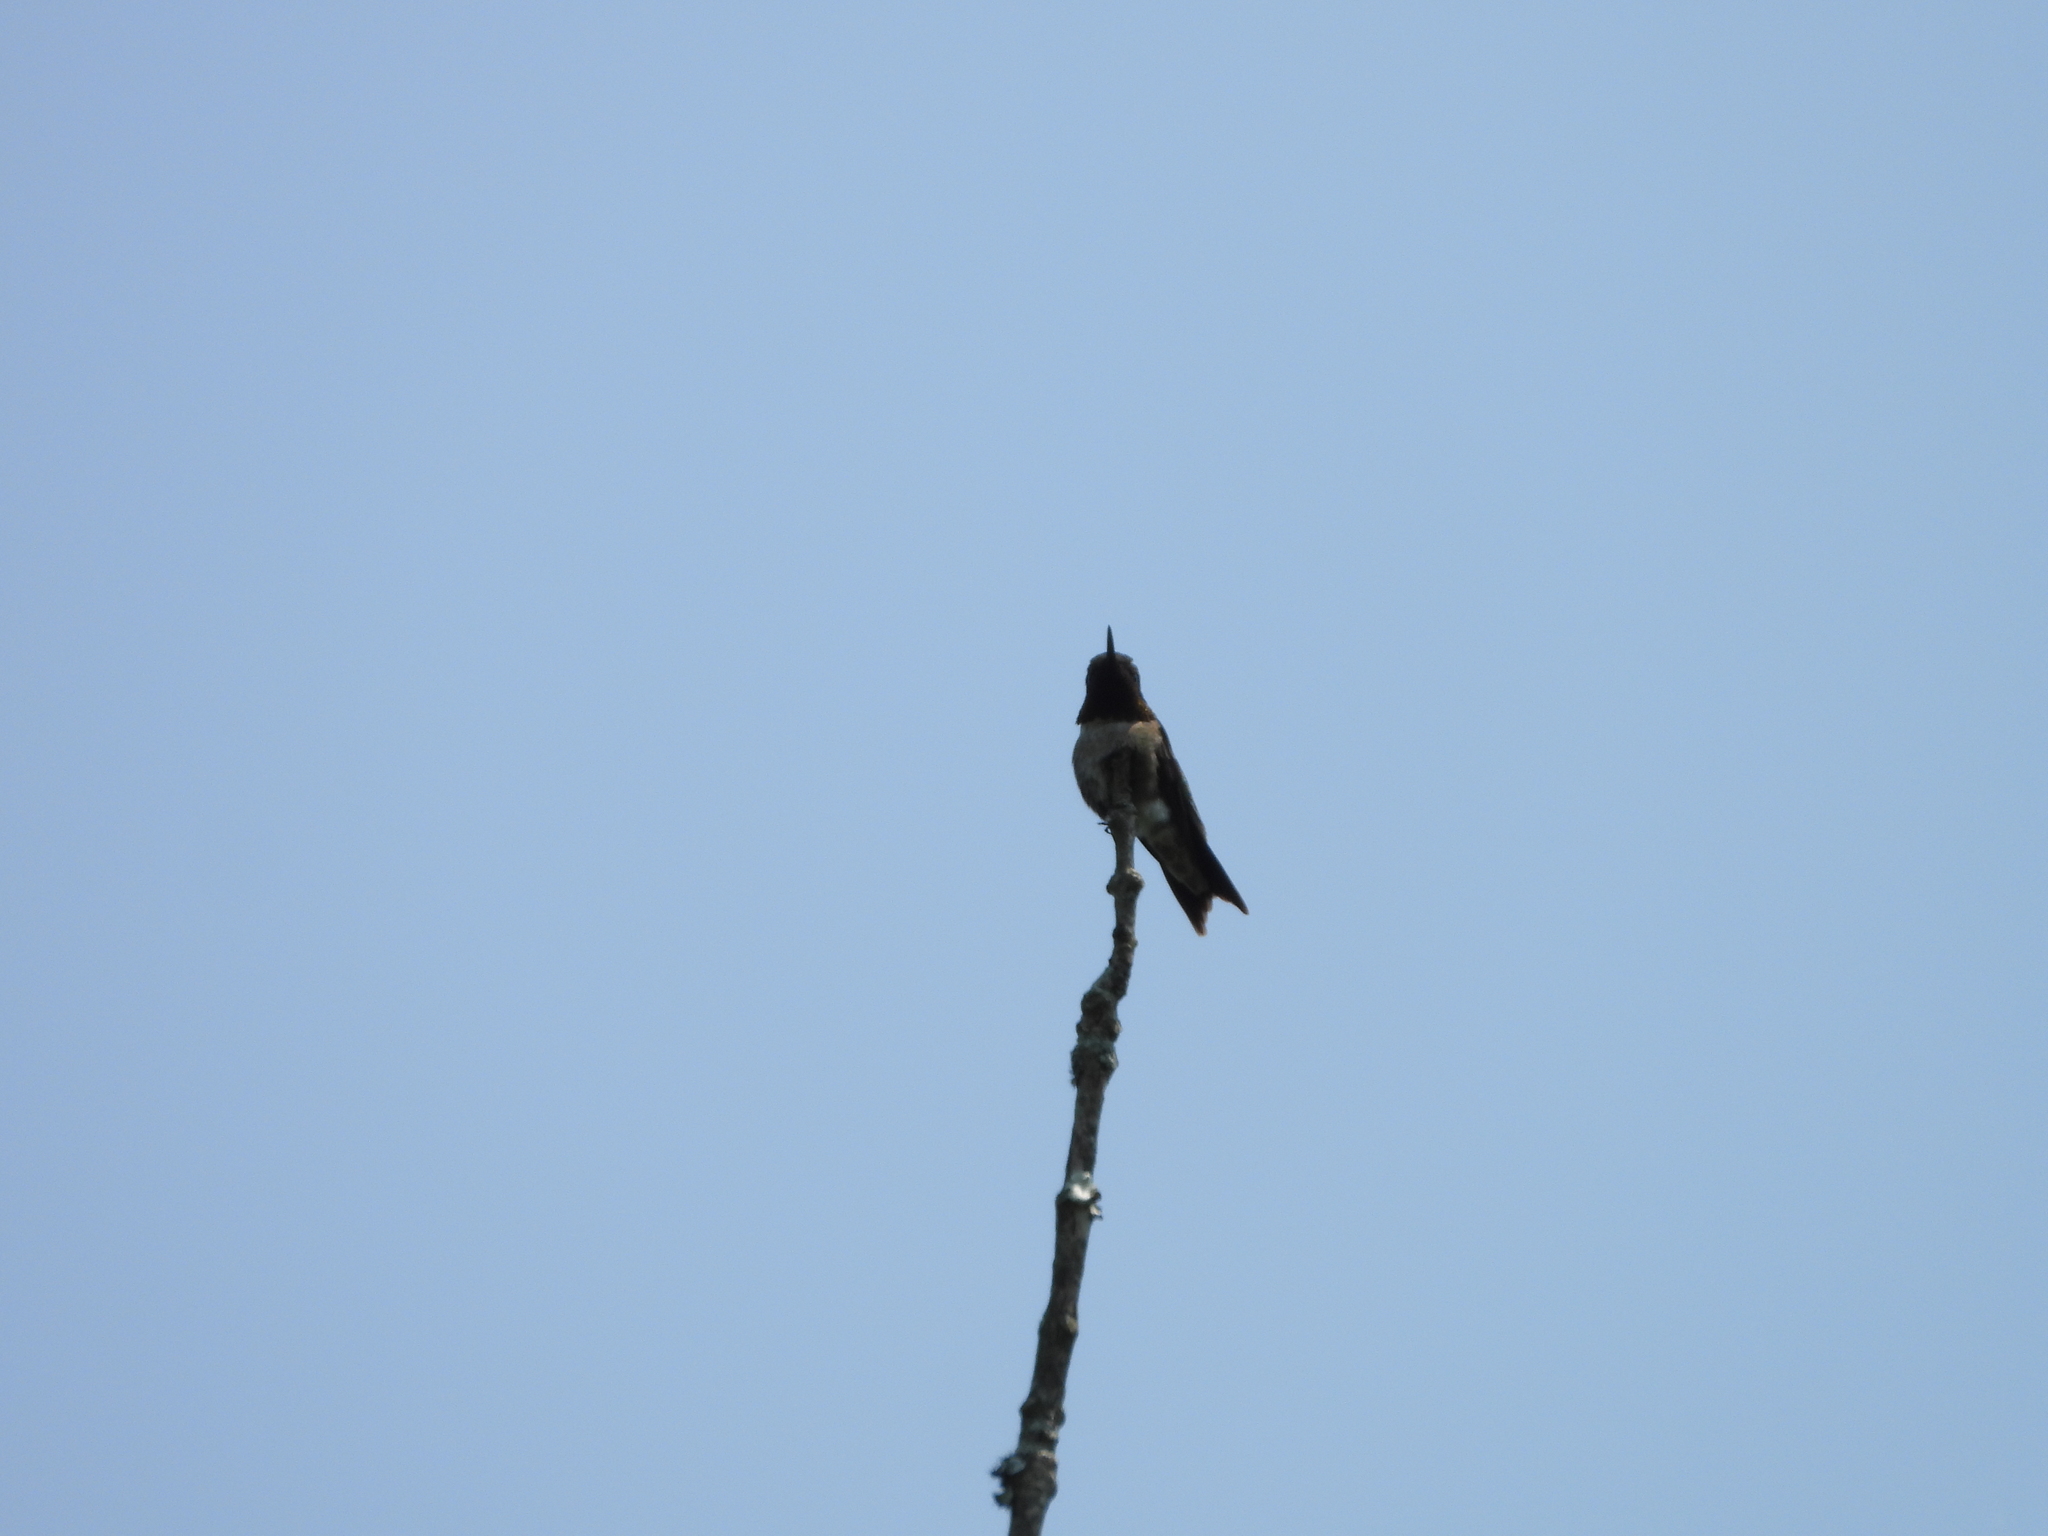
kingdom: Animalia
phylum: Chordata
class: Aves
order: Apodiformes
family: Trochilidae
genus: Archilochus
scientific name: Archilochus colubris
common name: Ruby-throated hummingbird
